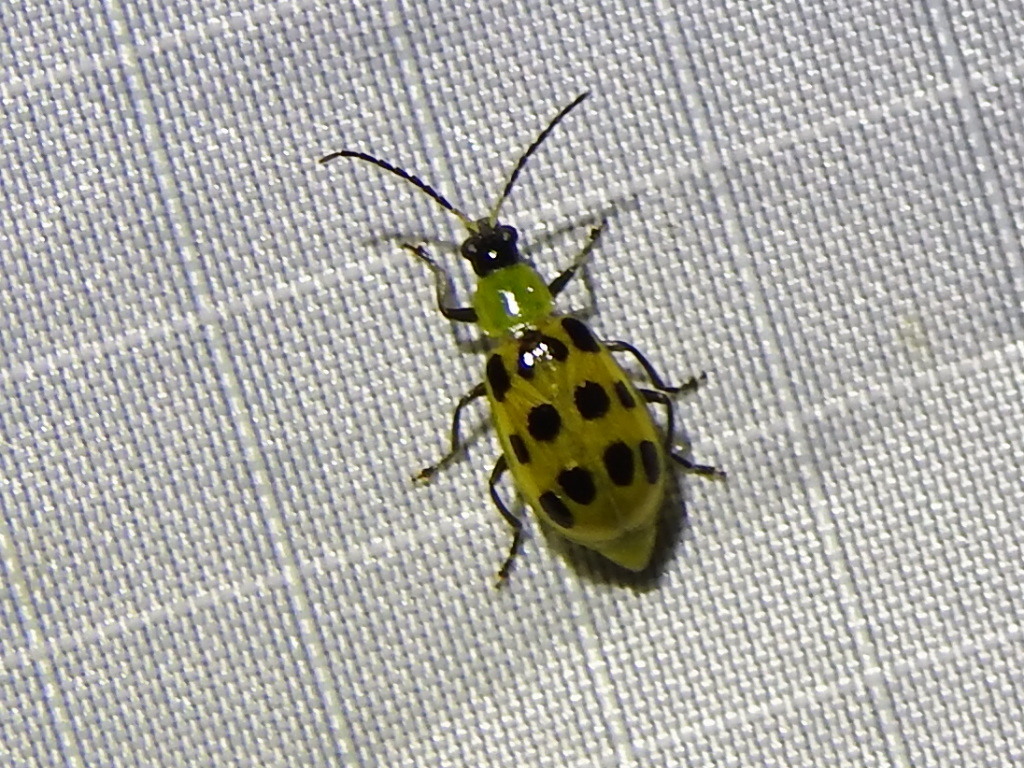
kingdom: Animalia
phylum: Arthropoda
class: Insecta
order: Coleoptera
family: Chrysomelidae
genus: Diabrotica
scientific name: Diabrotica undecimpunctata
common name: Spotted cucumber beetle
